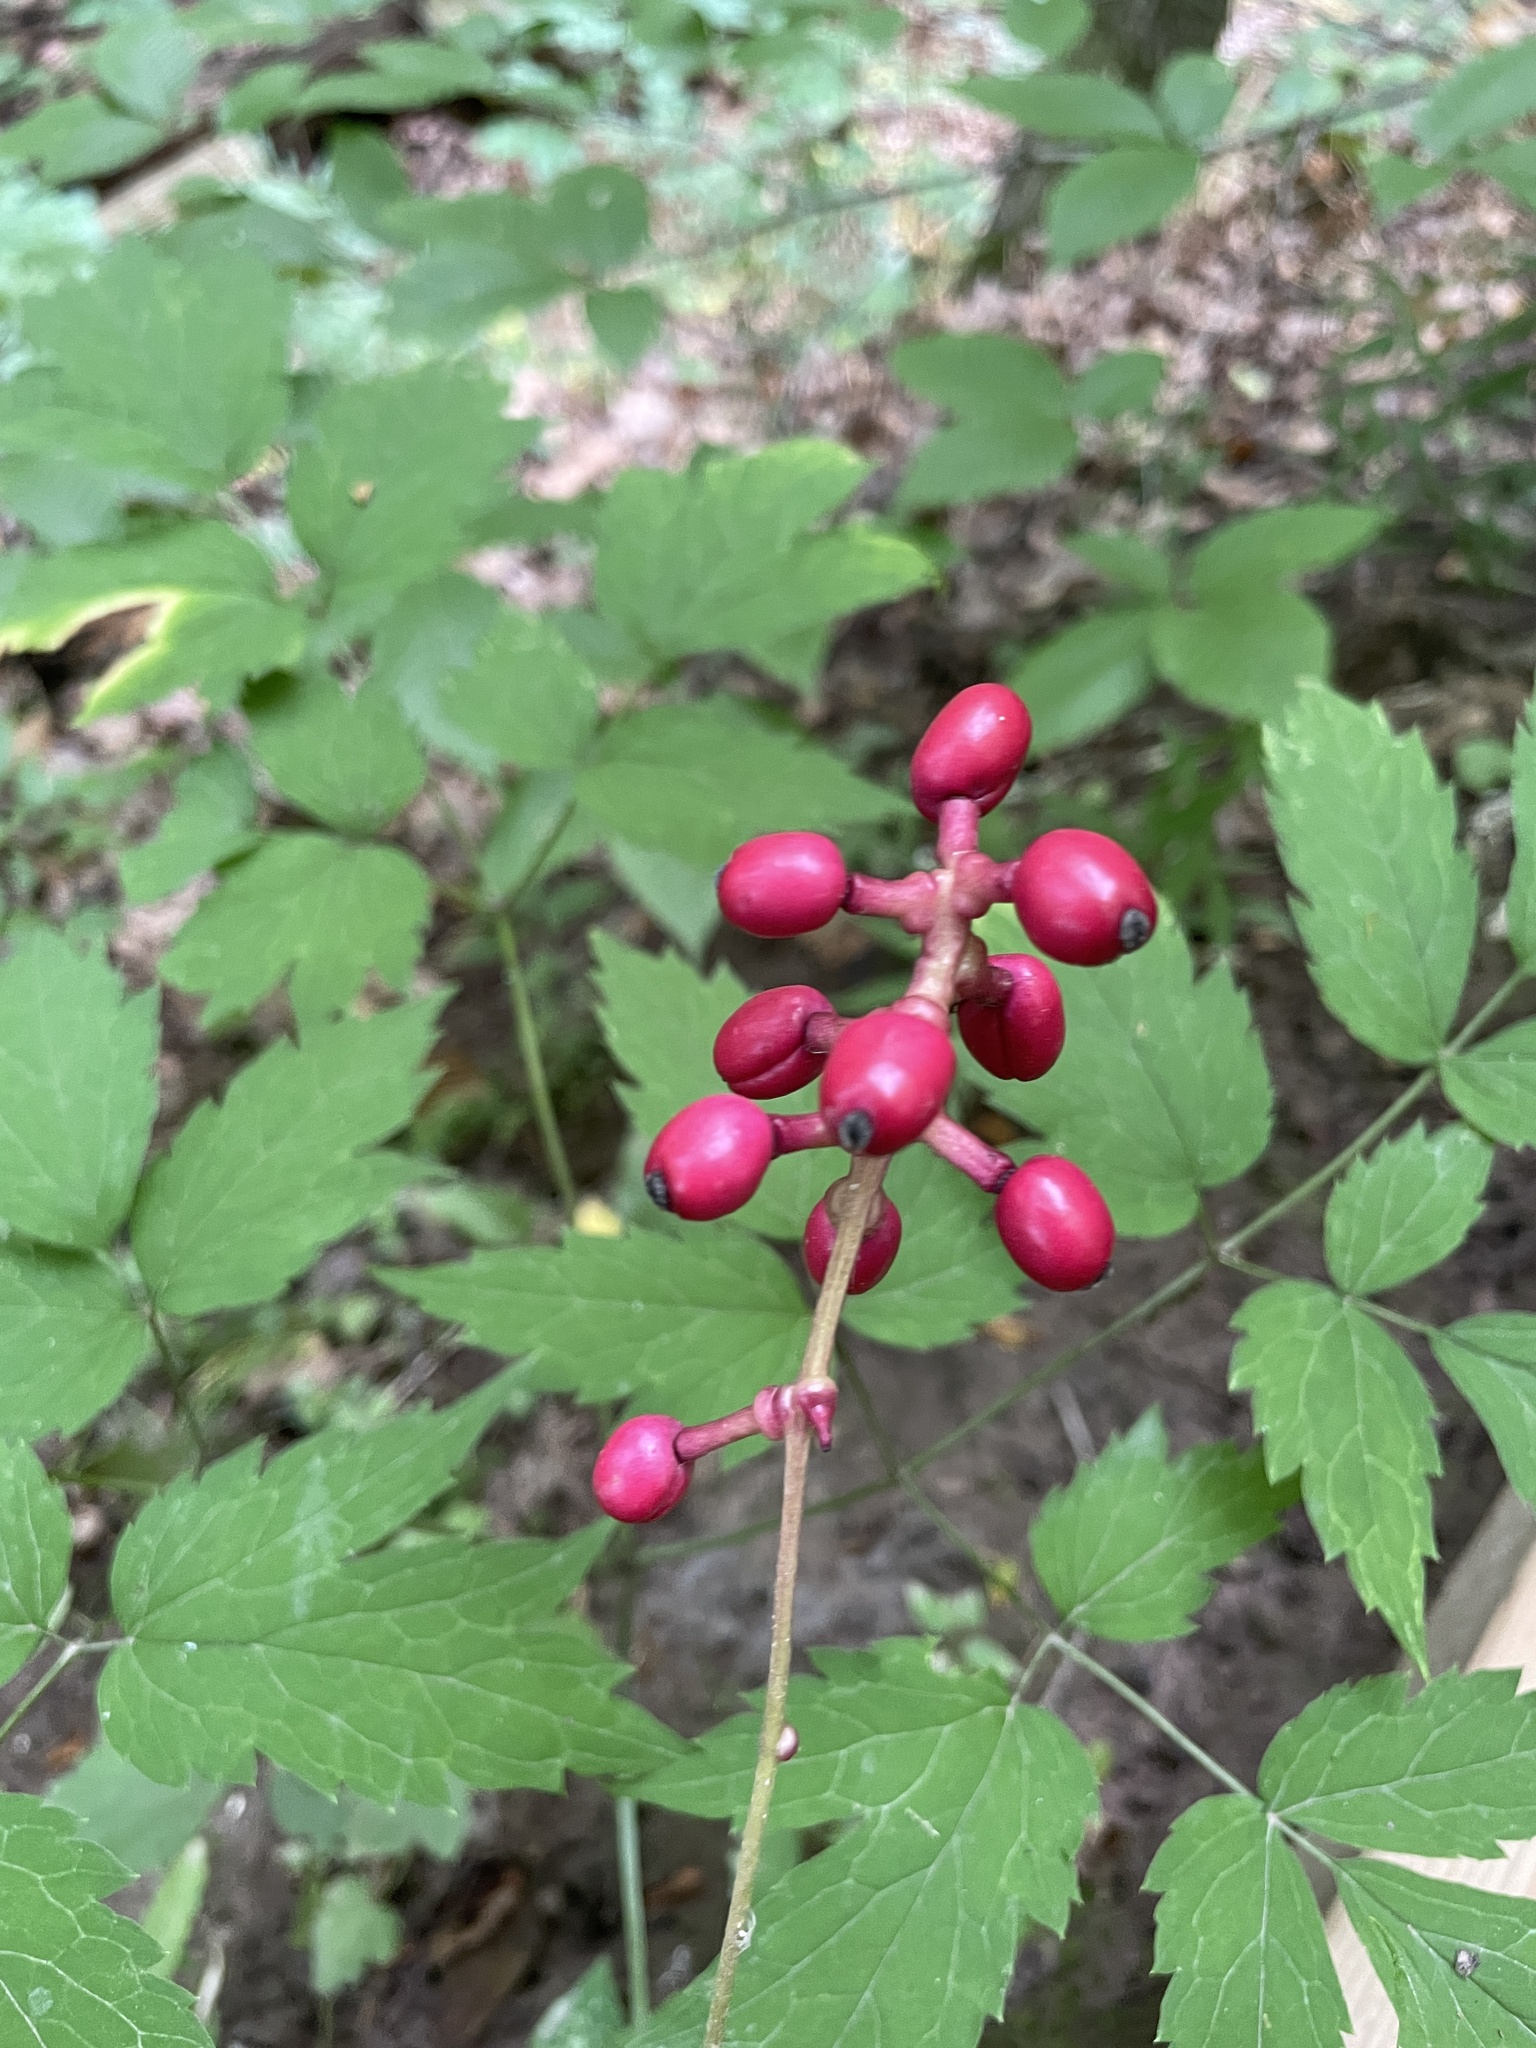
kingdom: Plantae
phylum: Tracheophyta
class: Magnoliopsida
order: Ranunculales
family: Ranunculaceae
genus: Actaea
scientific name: Actaea pachypoda
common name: Doll's-eyes
